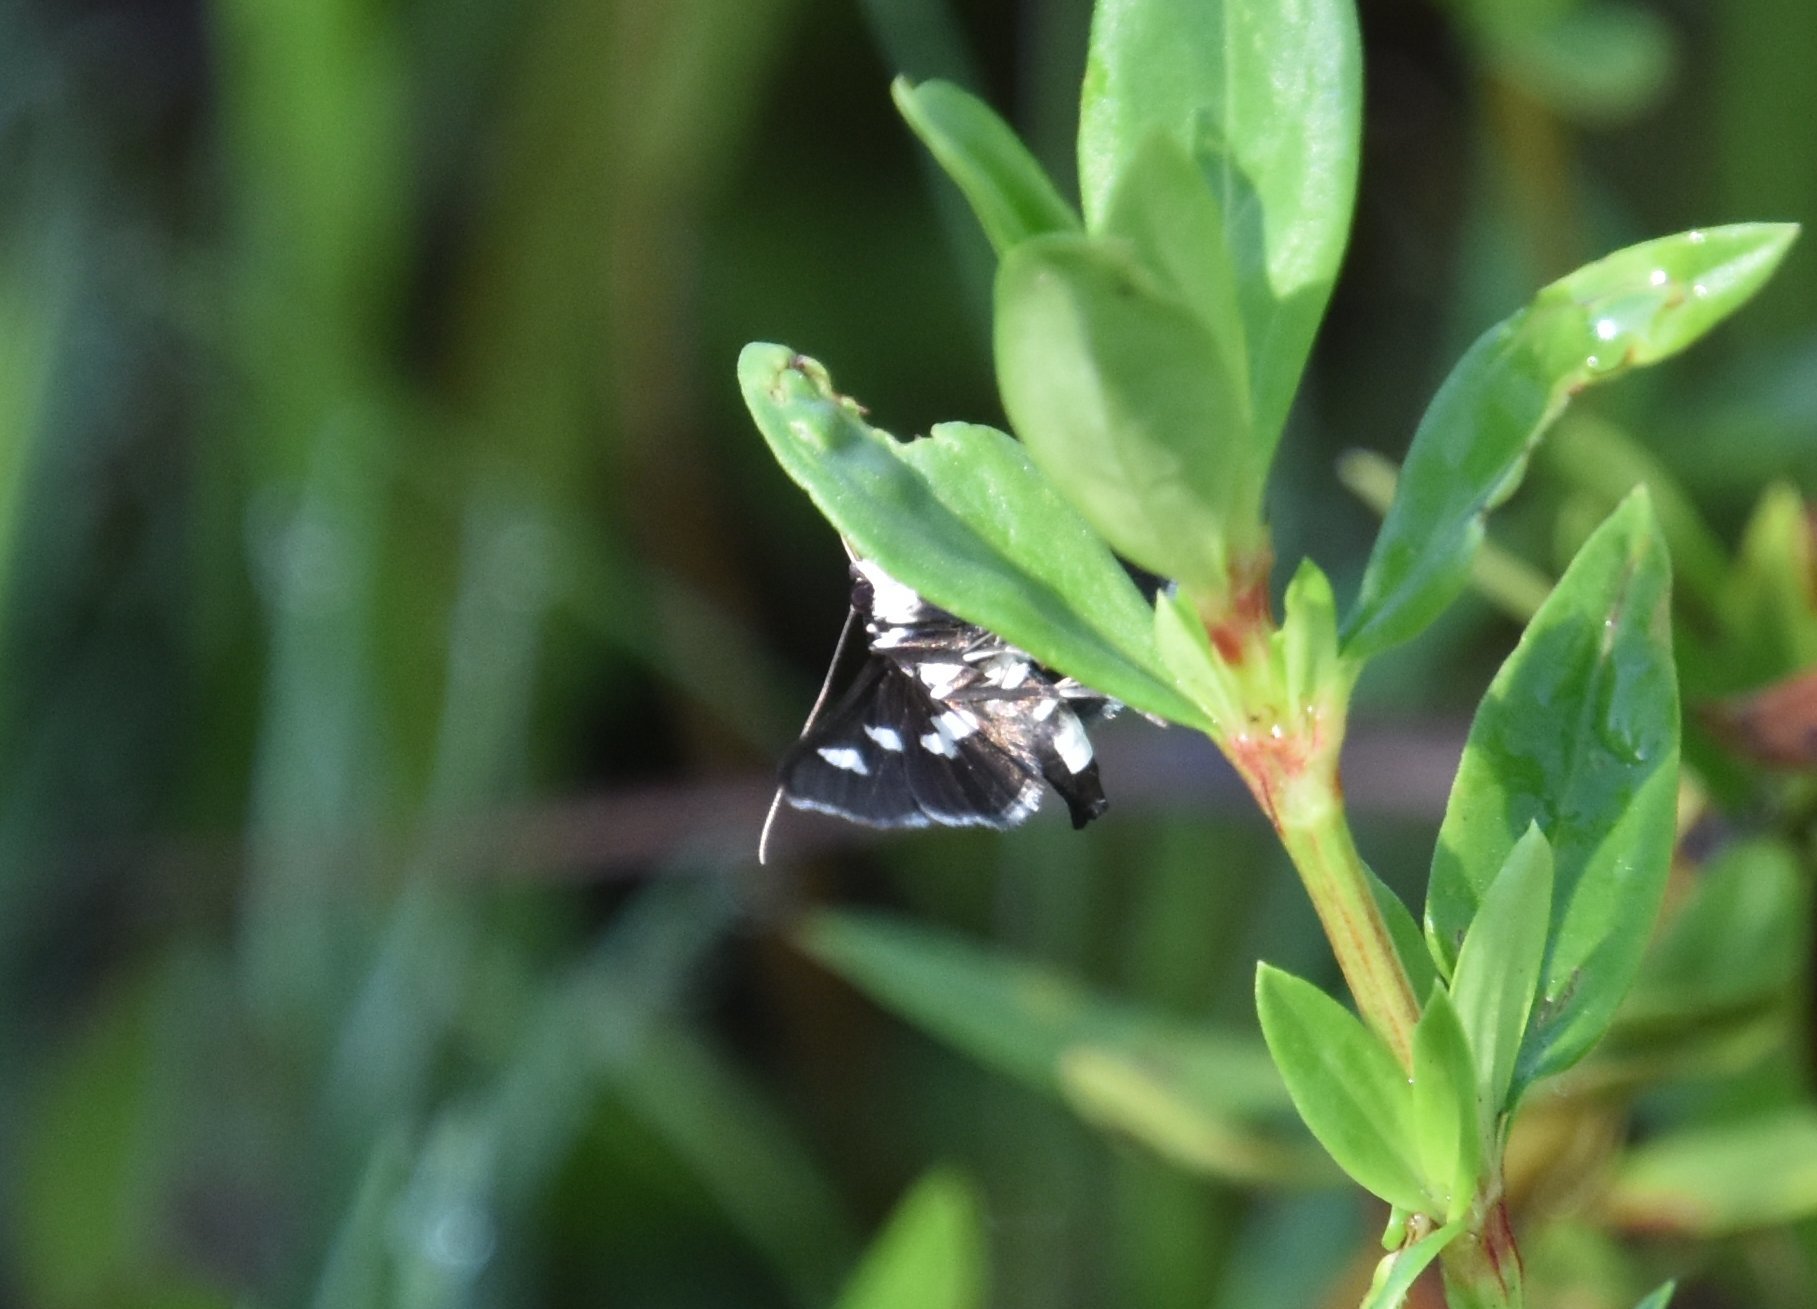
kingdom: Animalia
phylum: Arthropoda
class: Insecta
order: Lepidoptera
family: Crambidae
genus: Desmia
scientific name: Desmia funeralis
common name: Grape leaf folder moth
